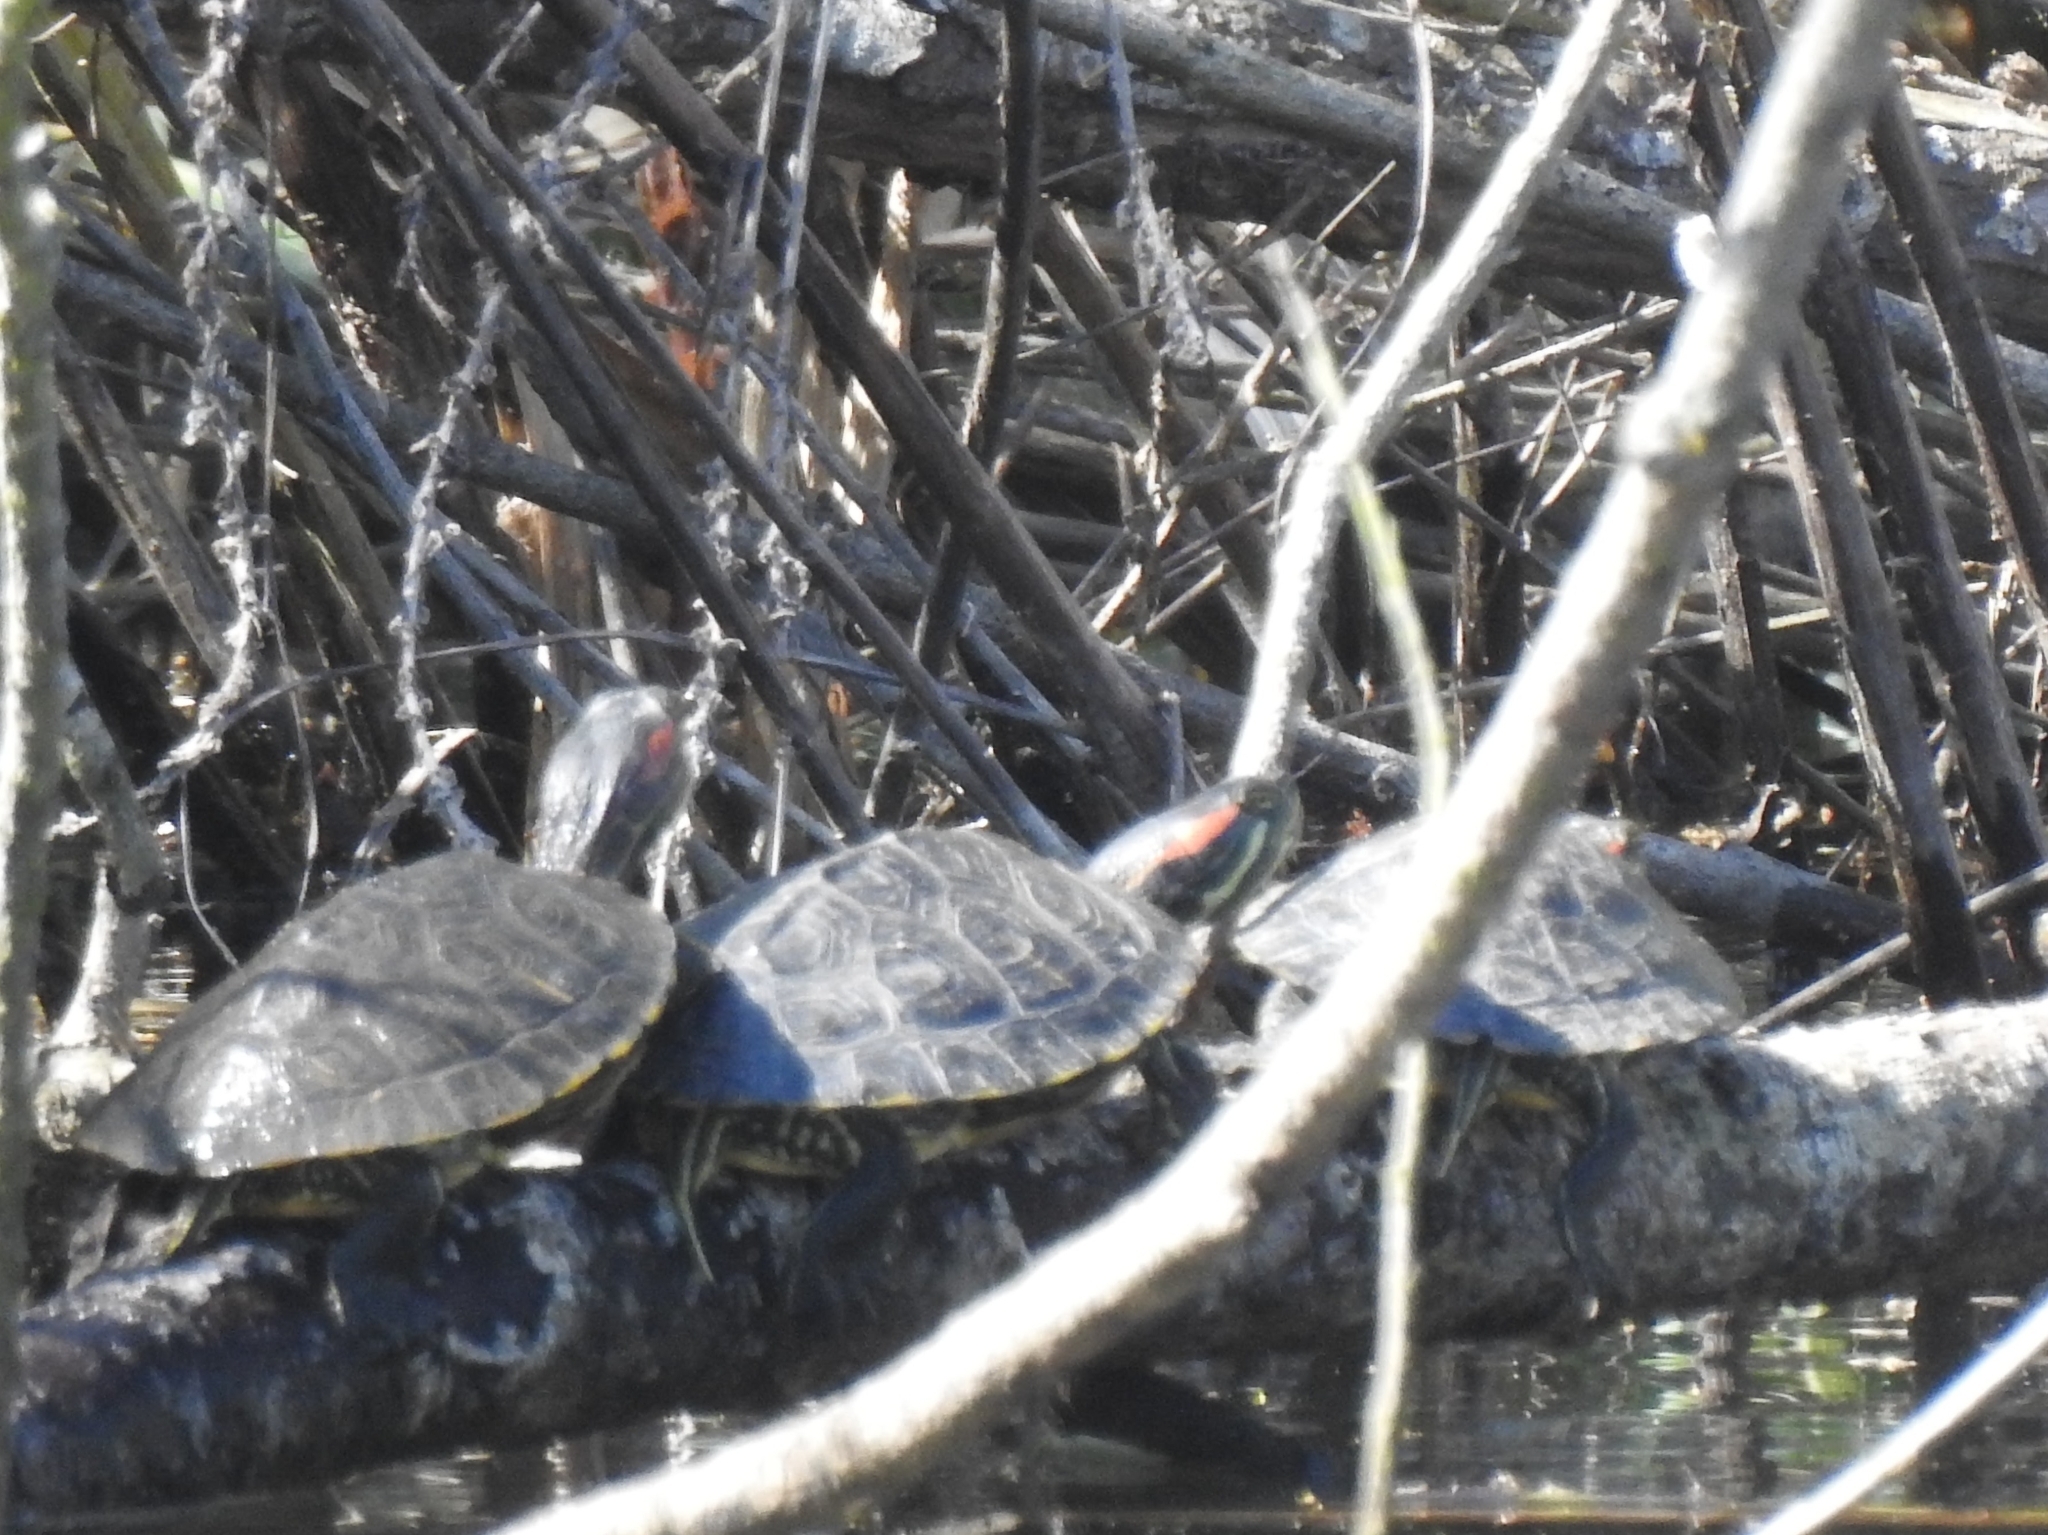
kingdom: Animalia
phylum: Chordata
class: Testudines
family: Emydidae
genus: Trachemys
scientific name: Trachemys scripta
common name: Slider
